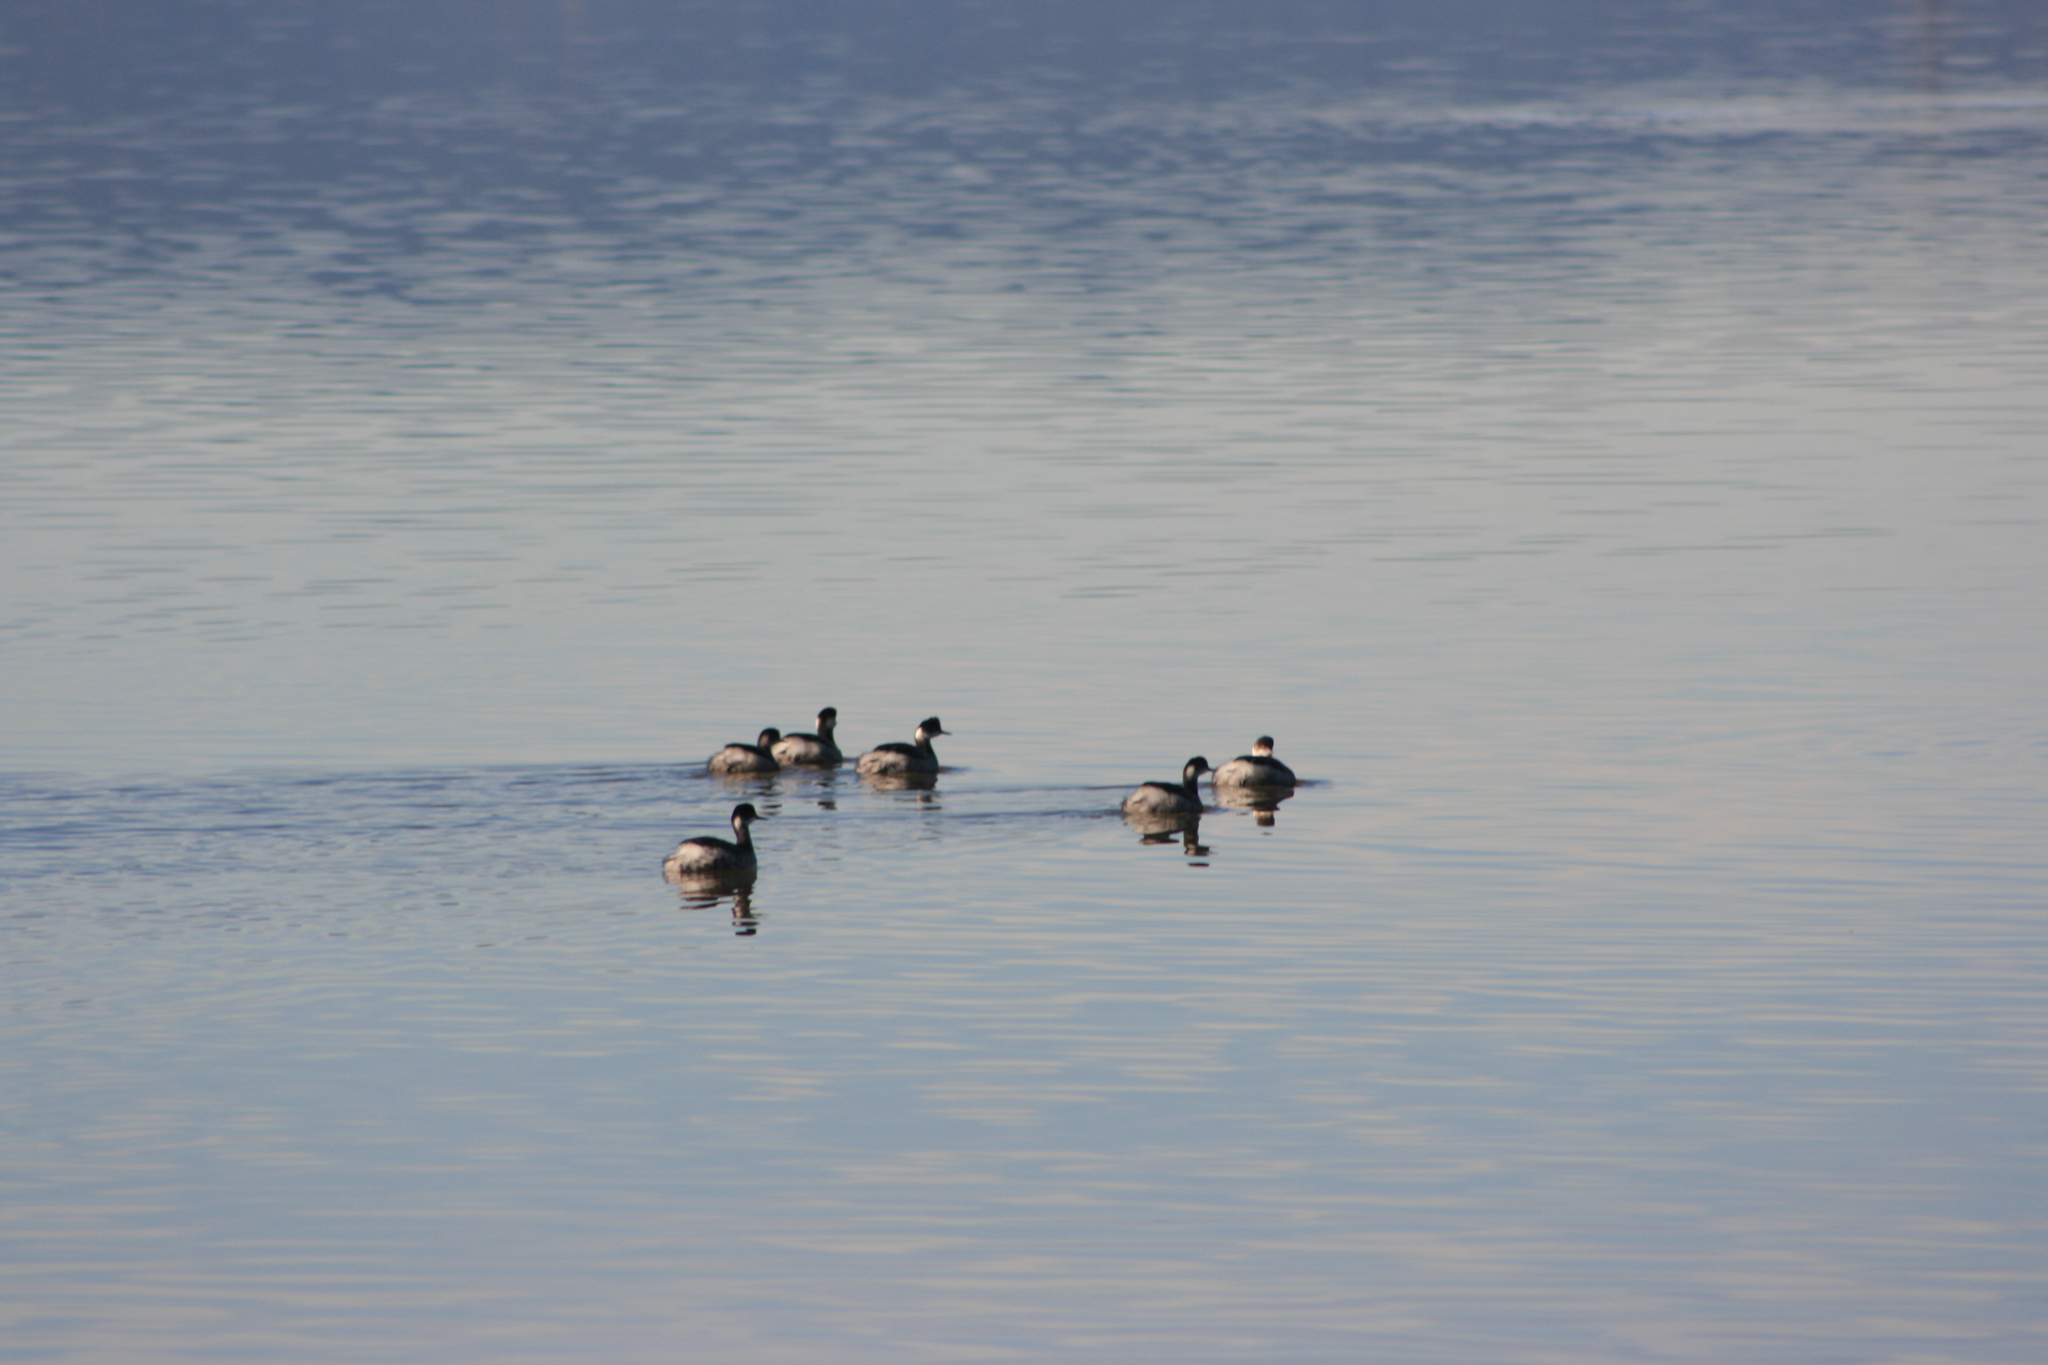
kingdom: Animalia
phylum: Chordata
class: Aves
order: Podicipediformes
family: Podicipedidae
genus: Podiceps
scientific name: Podiceps nigricollis
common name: Black-necked grebe
